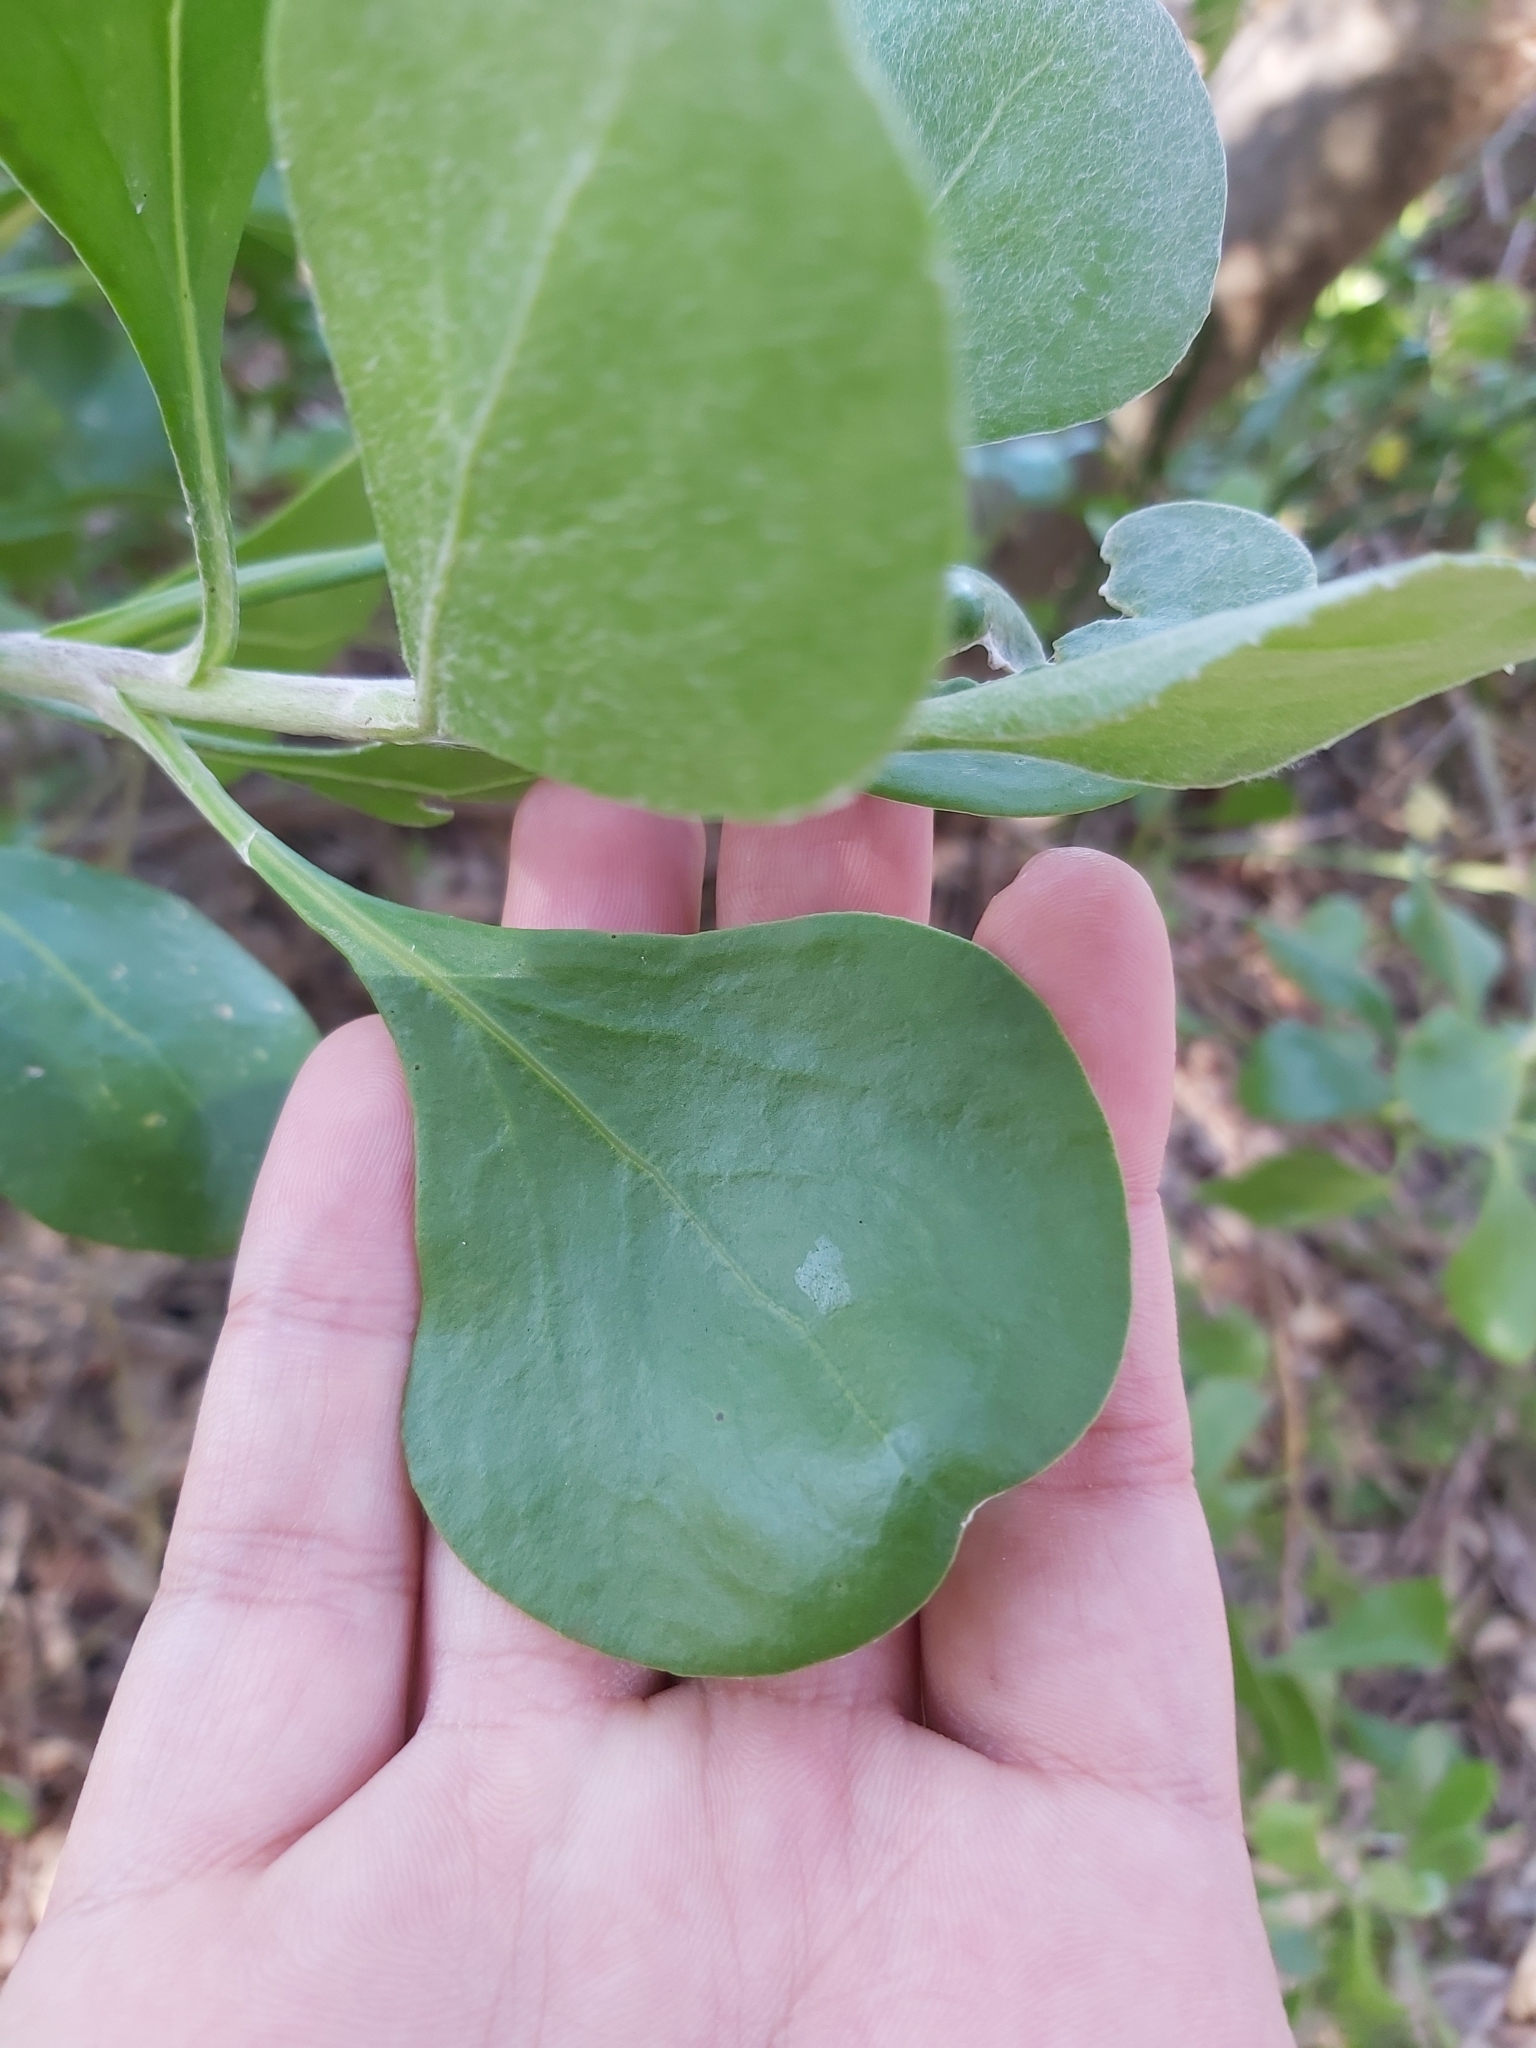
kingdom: Plantae
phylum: Tracheophyta
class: Magnoliopsida
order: Asterales
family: Asteraceae
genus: Osteospermum
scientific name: Osteospermum moniliferum
